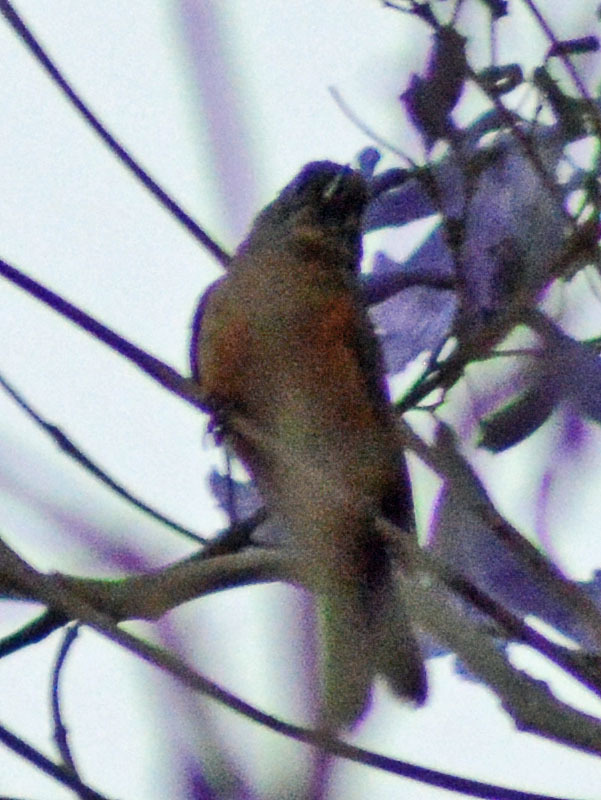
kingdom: Animalia
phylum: Chordata
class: Aves
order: Passeriformes
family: Thraupidae
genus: Diglossa
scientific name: Diglossa baritula
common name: Cinnamon-bellied flowerpiercer
